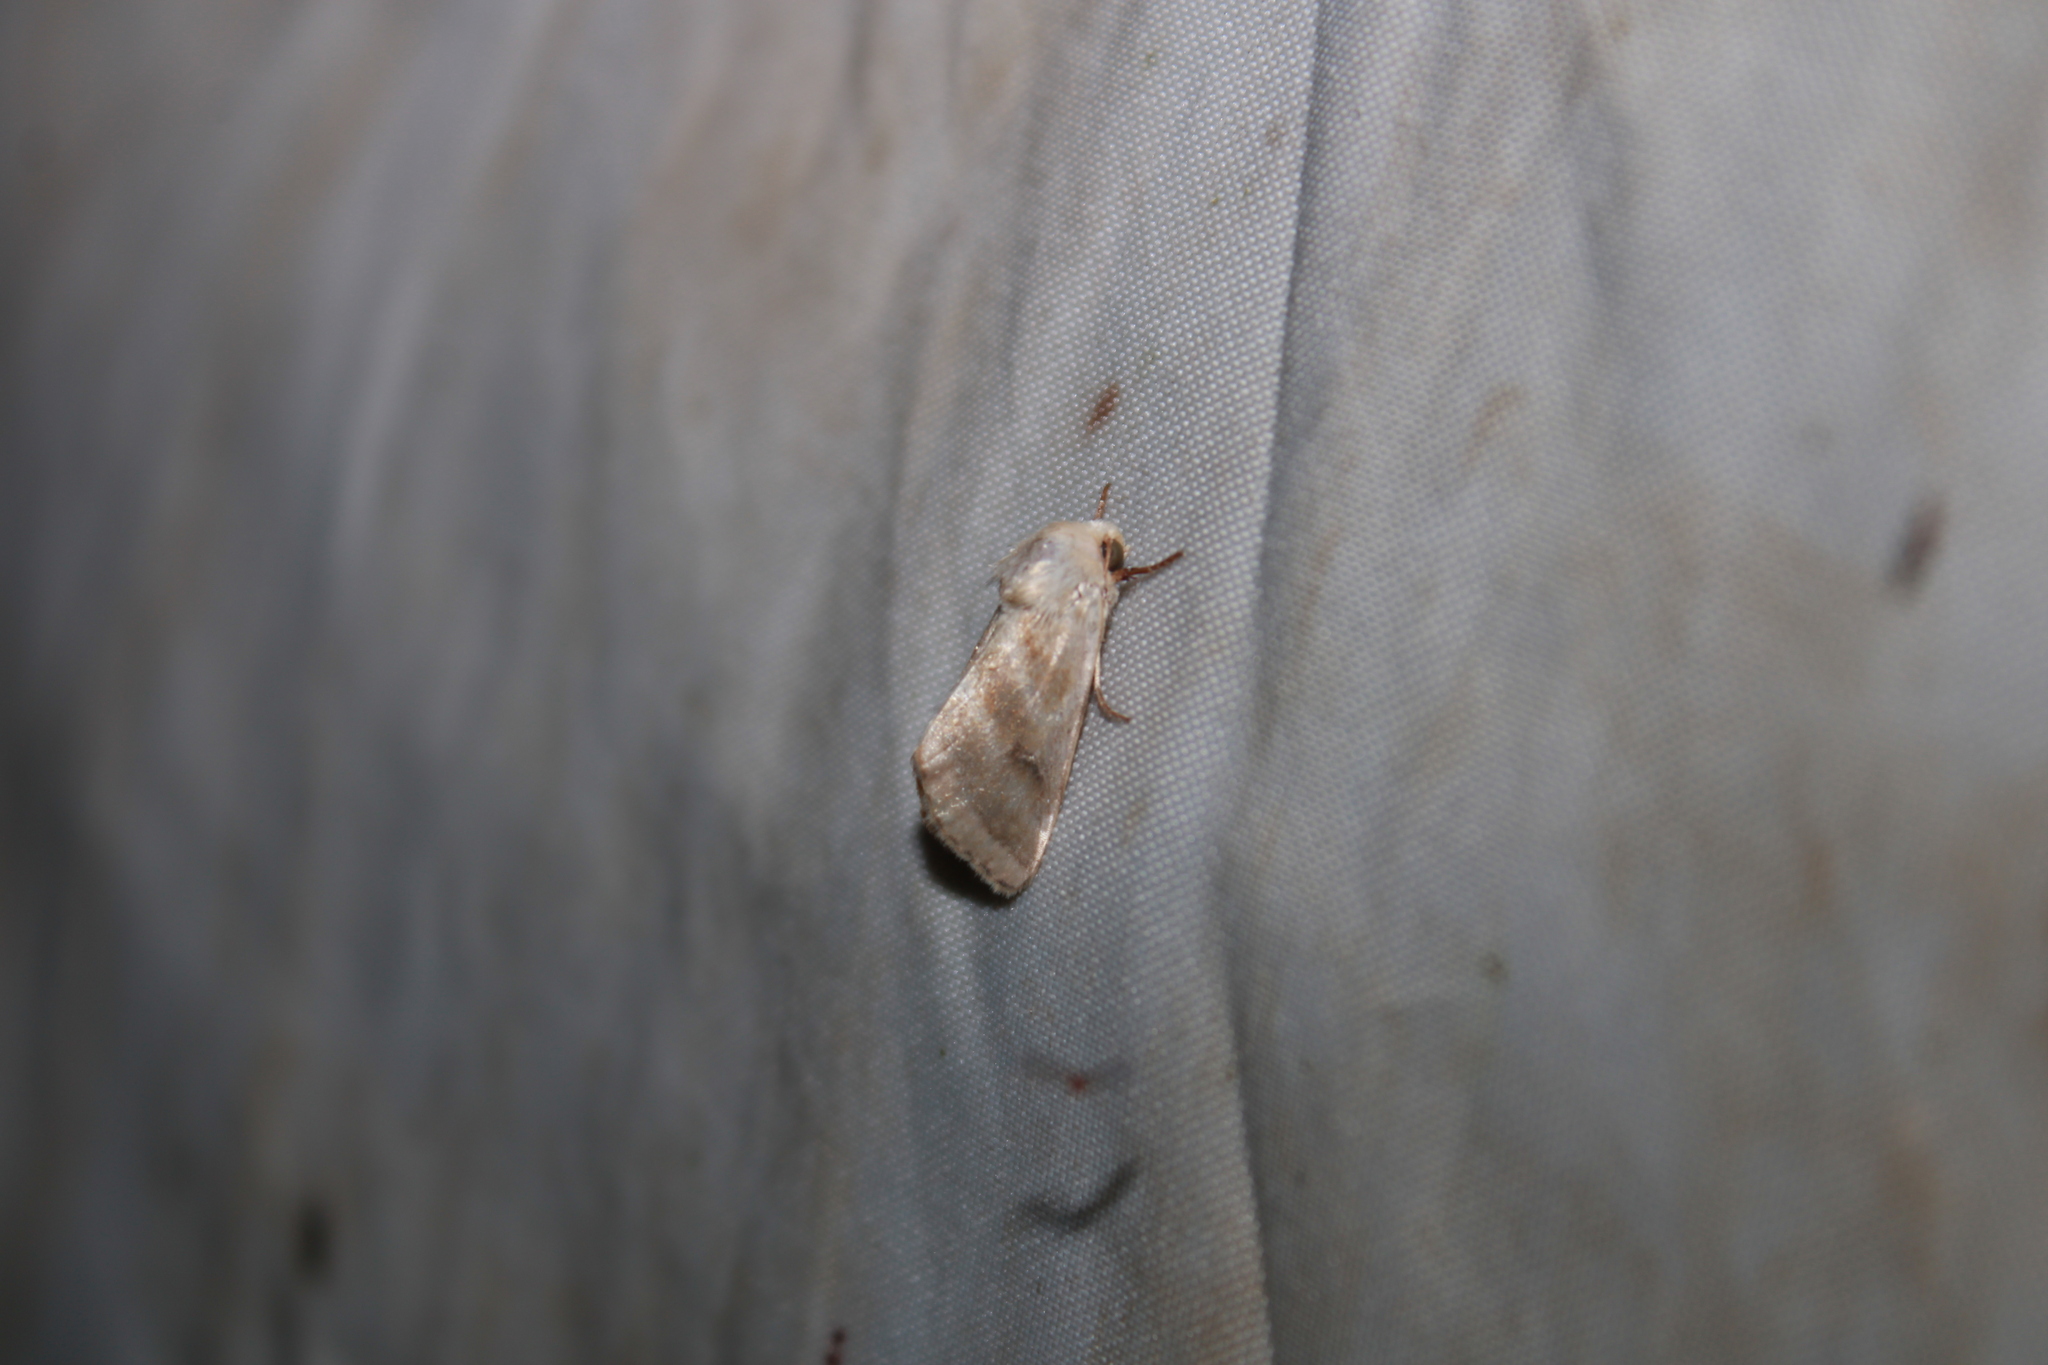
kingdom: Animalia
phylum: Arthropoda
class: Insecta
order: Lepidoptera
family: Noctuidae
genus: Schinia
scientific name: Schinia trifascia
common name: Three-lined flower moth
